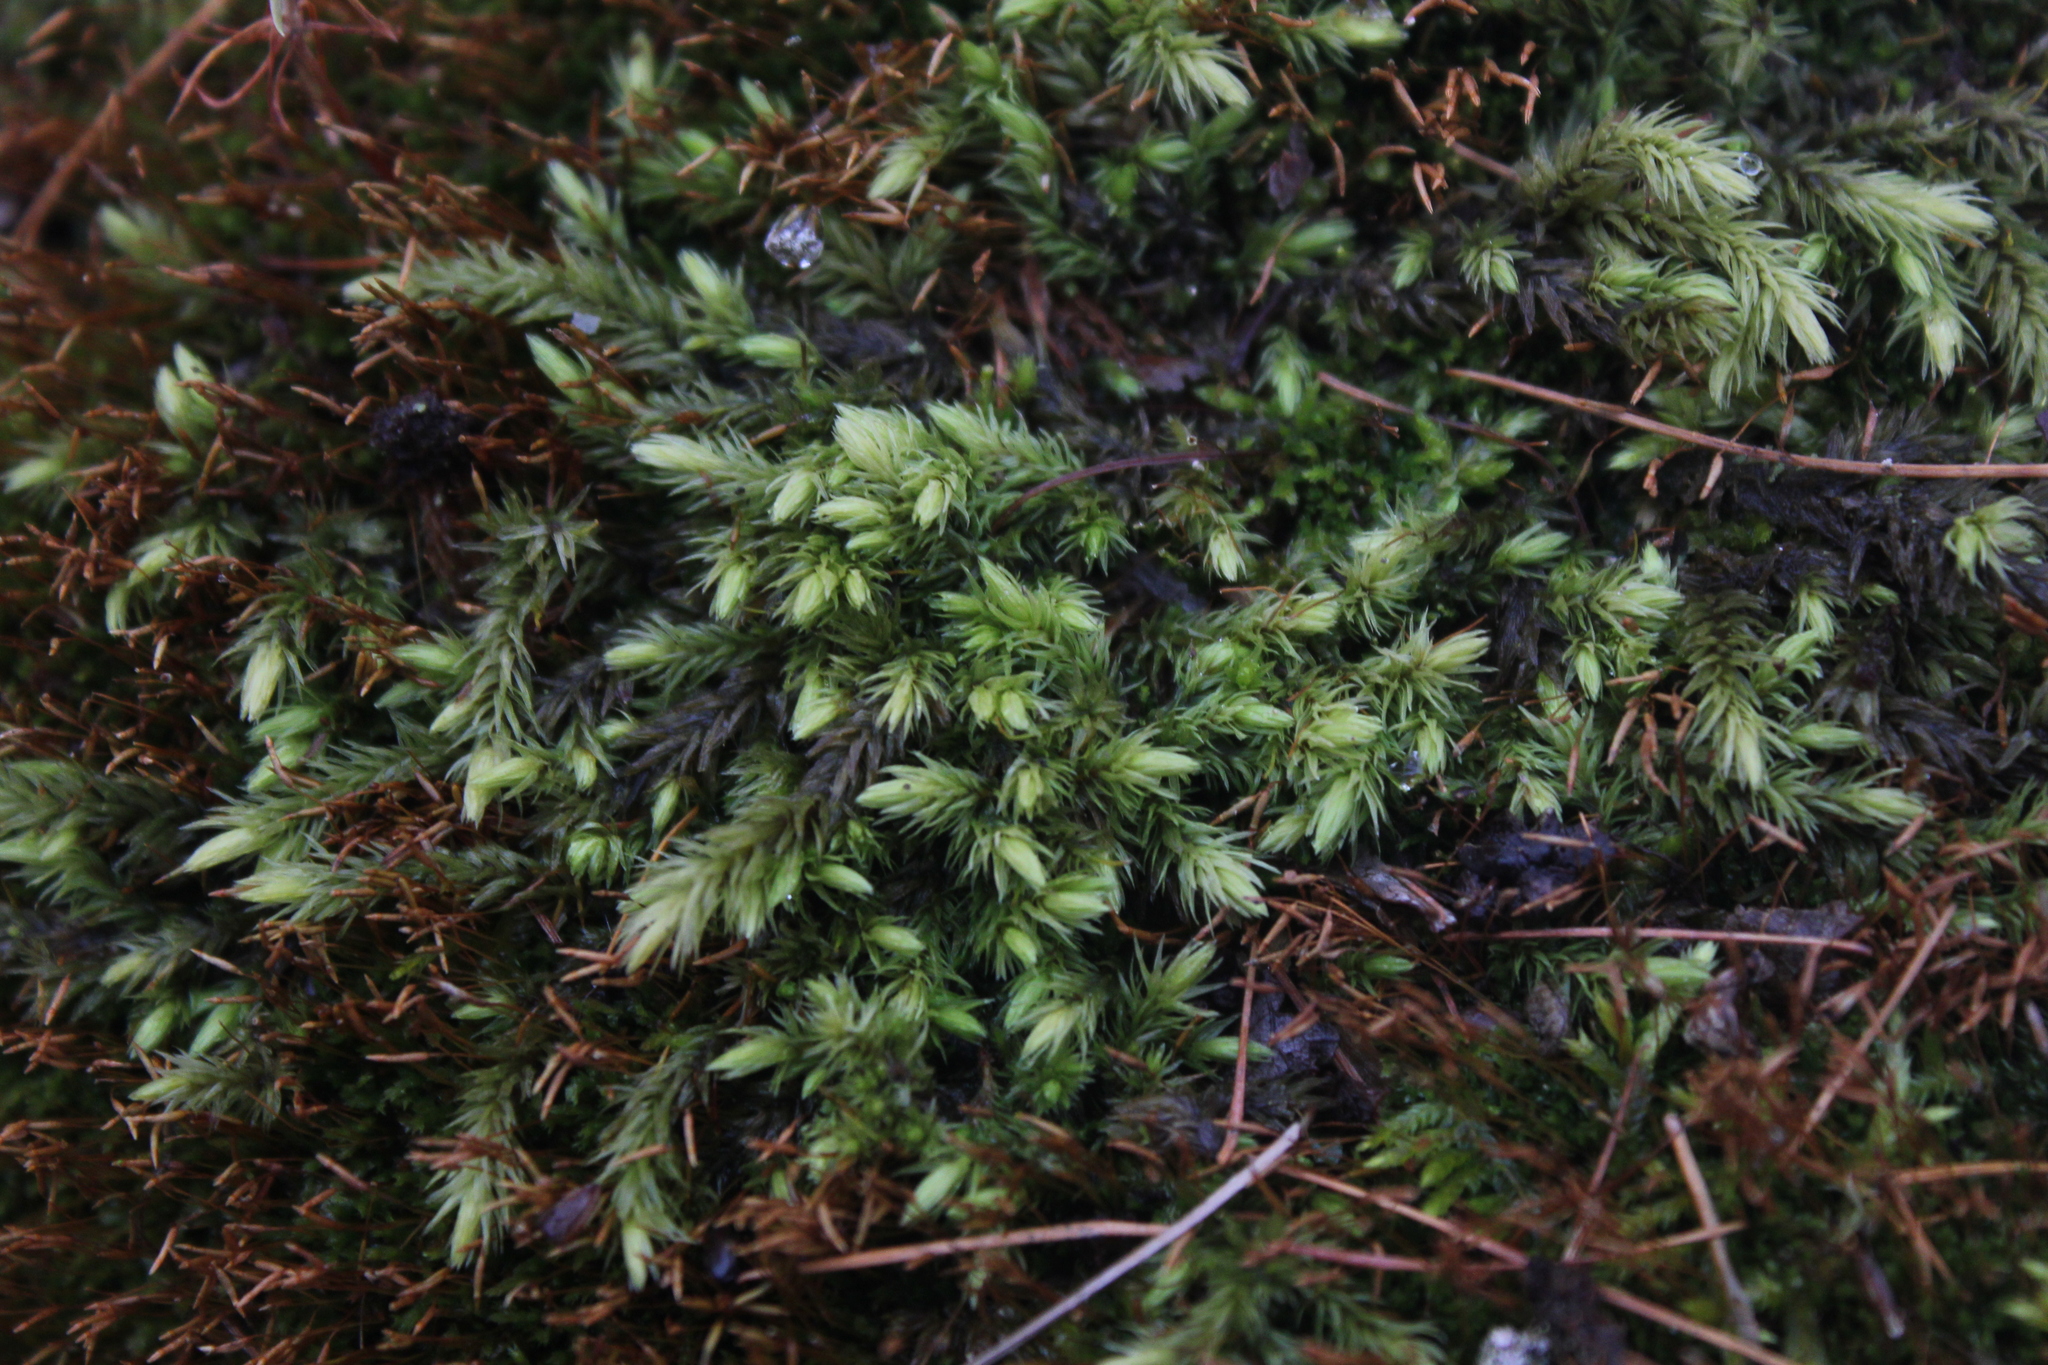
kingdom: Plantae
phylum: Bryophyta
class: Bryopsida
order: Aulacomniales
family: Aulacomniaceae
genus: Aulacomnium
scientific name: Aulacomnium palustre
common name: Bog groove-moss
